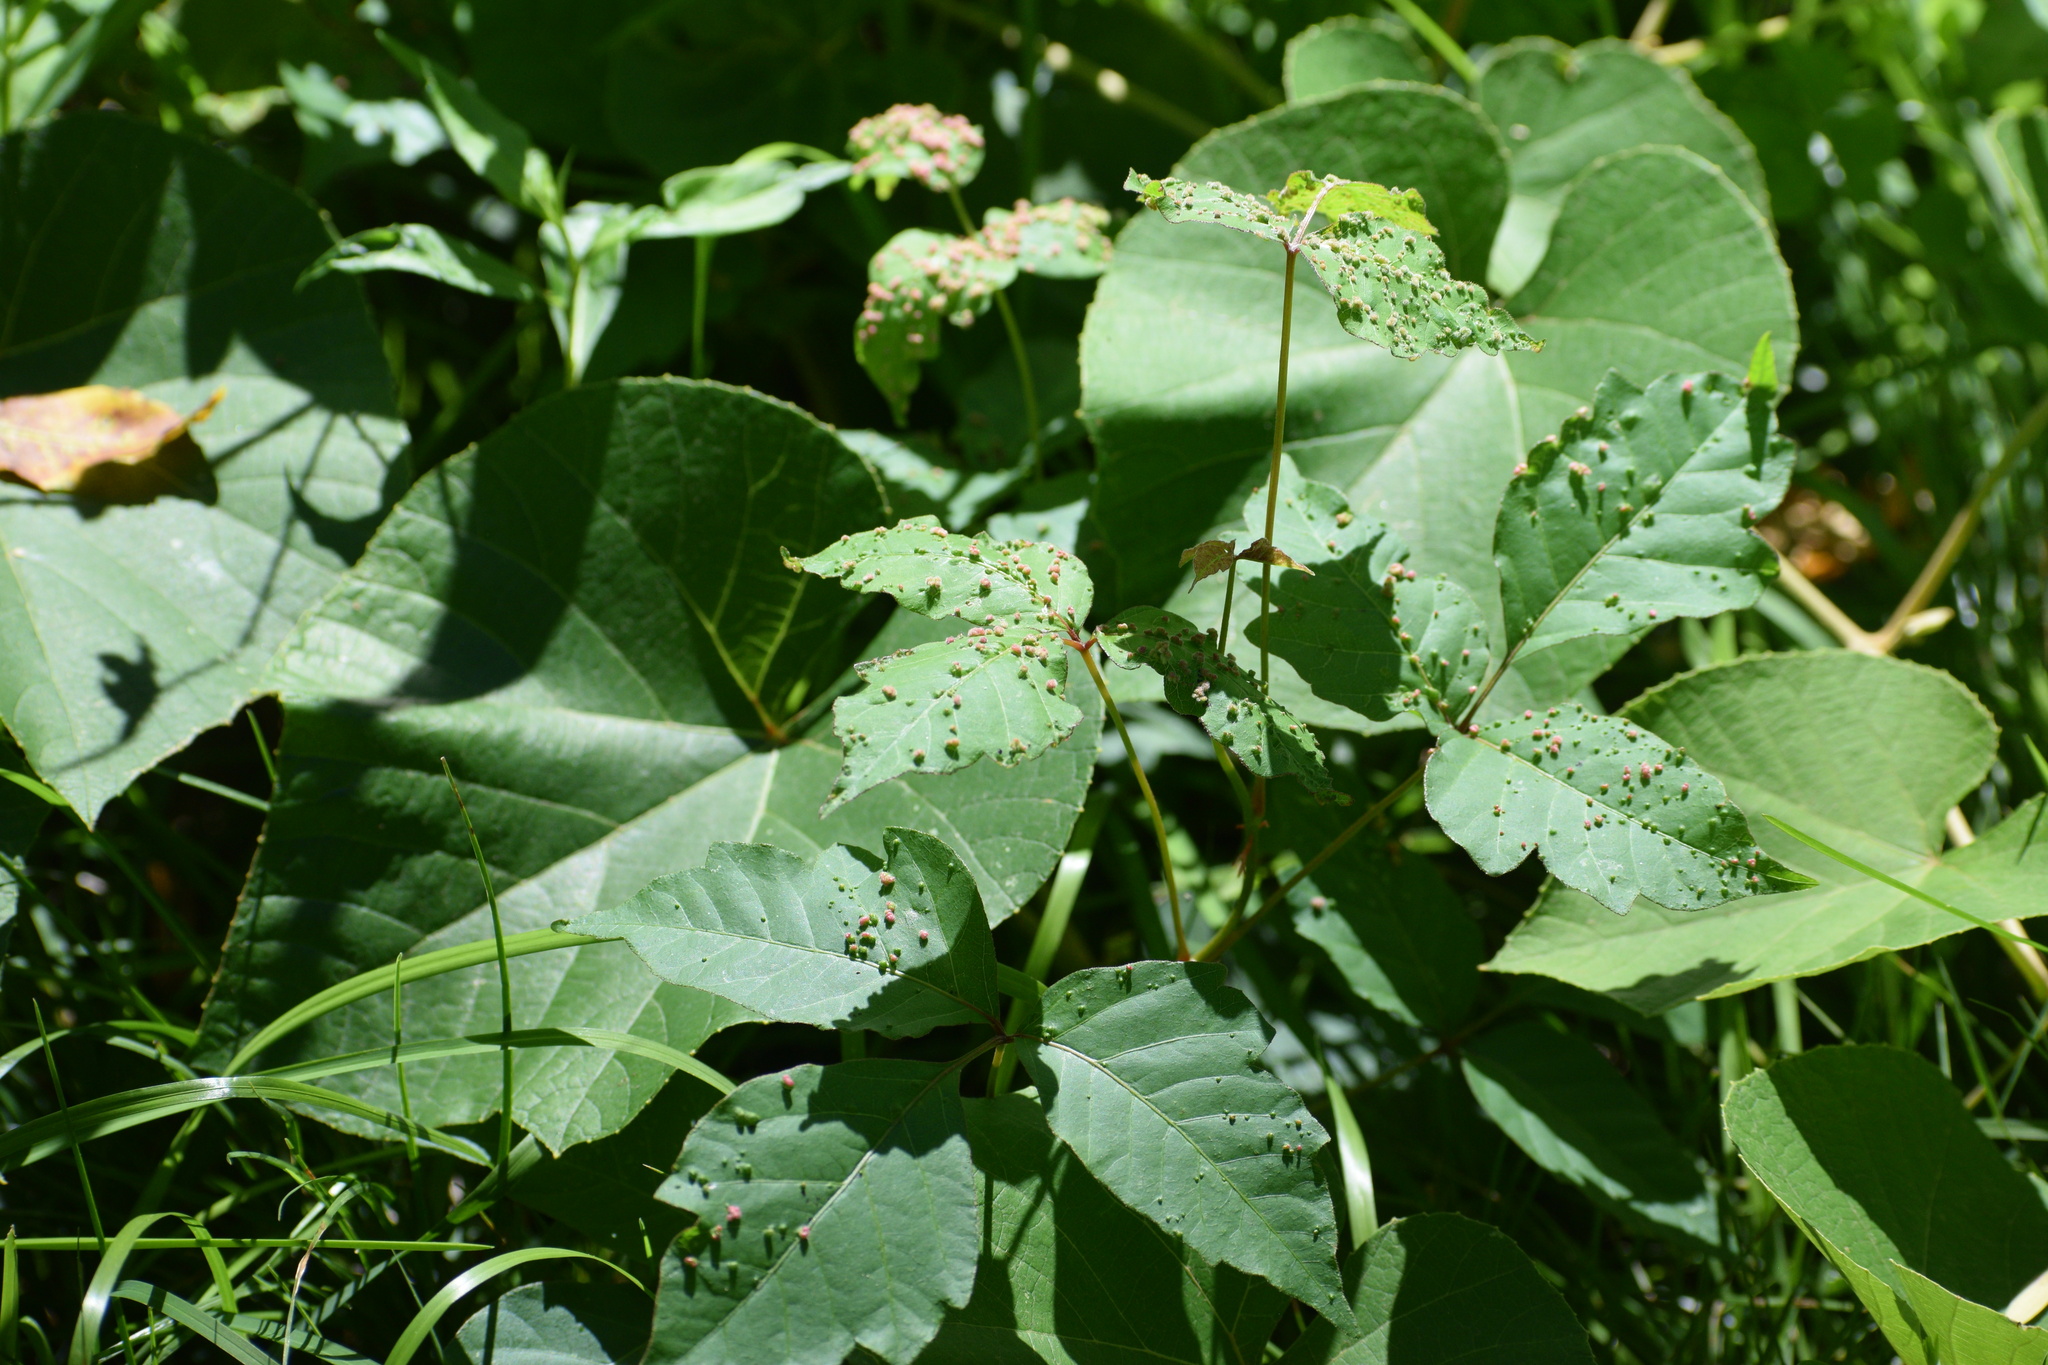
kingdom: Animalia
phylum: Arthropoda
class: Arachnida
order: Trombidiformes
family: Eriophyidae
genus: Aculops
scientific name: Aculops
